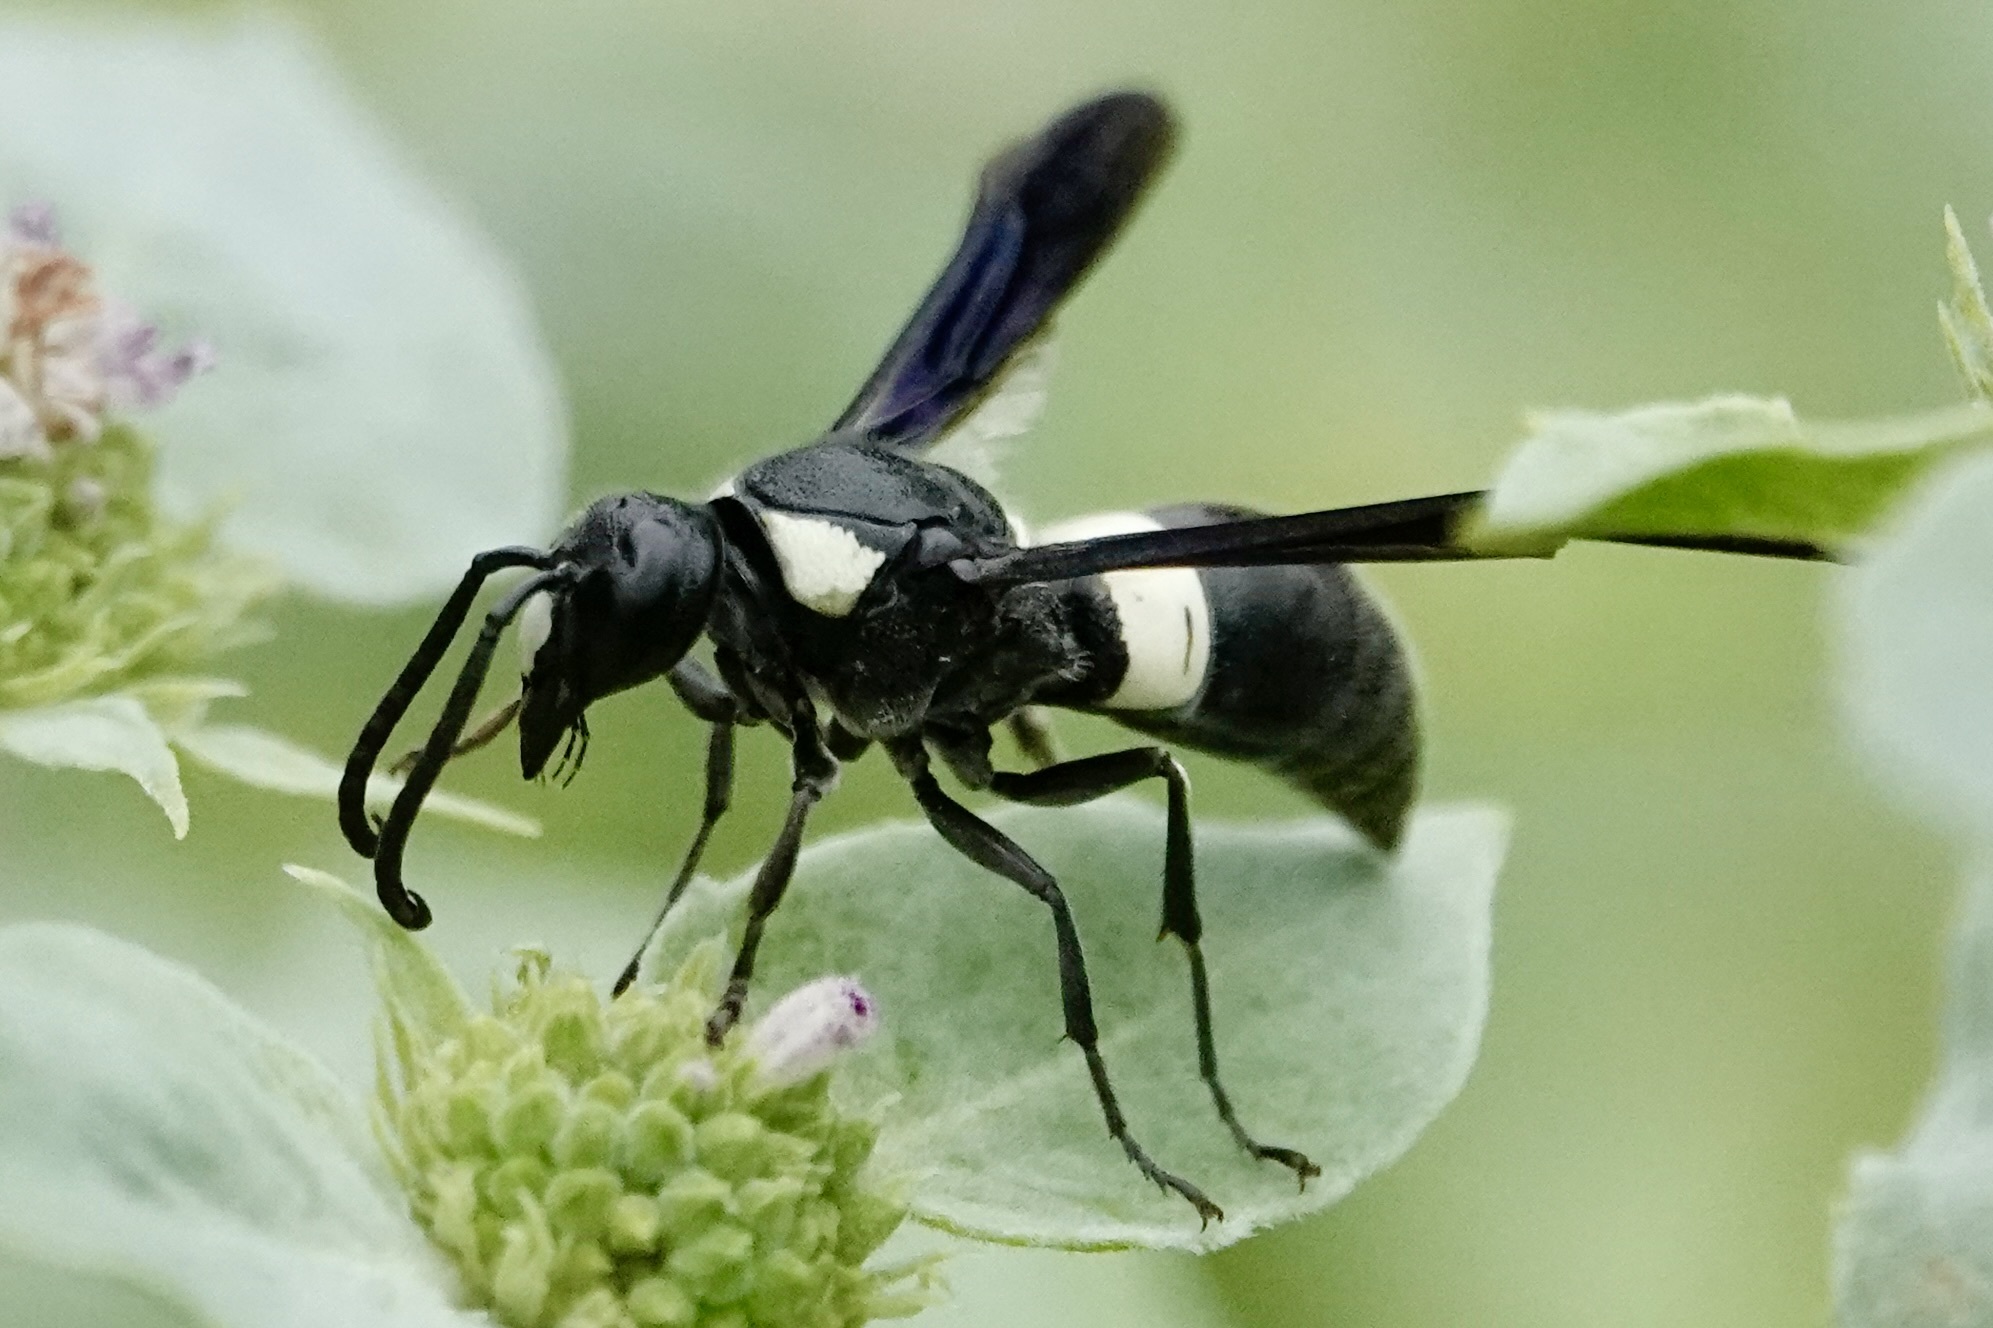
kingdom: Animalia
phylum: Arthropoda
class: Insecta
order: Hymenoptera
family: Eumenidae
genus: Monobia
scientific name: Monobia quadridens
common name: Four-toothed mason wasp
